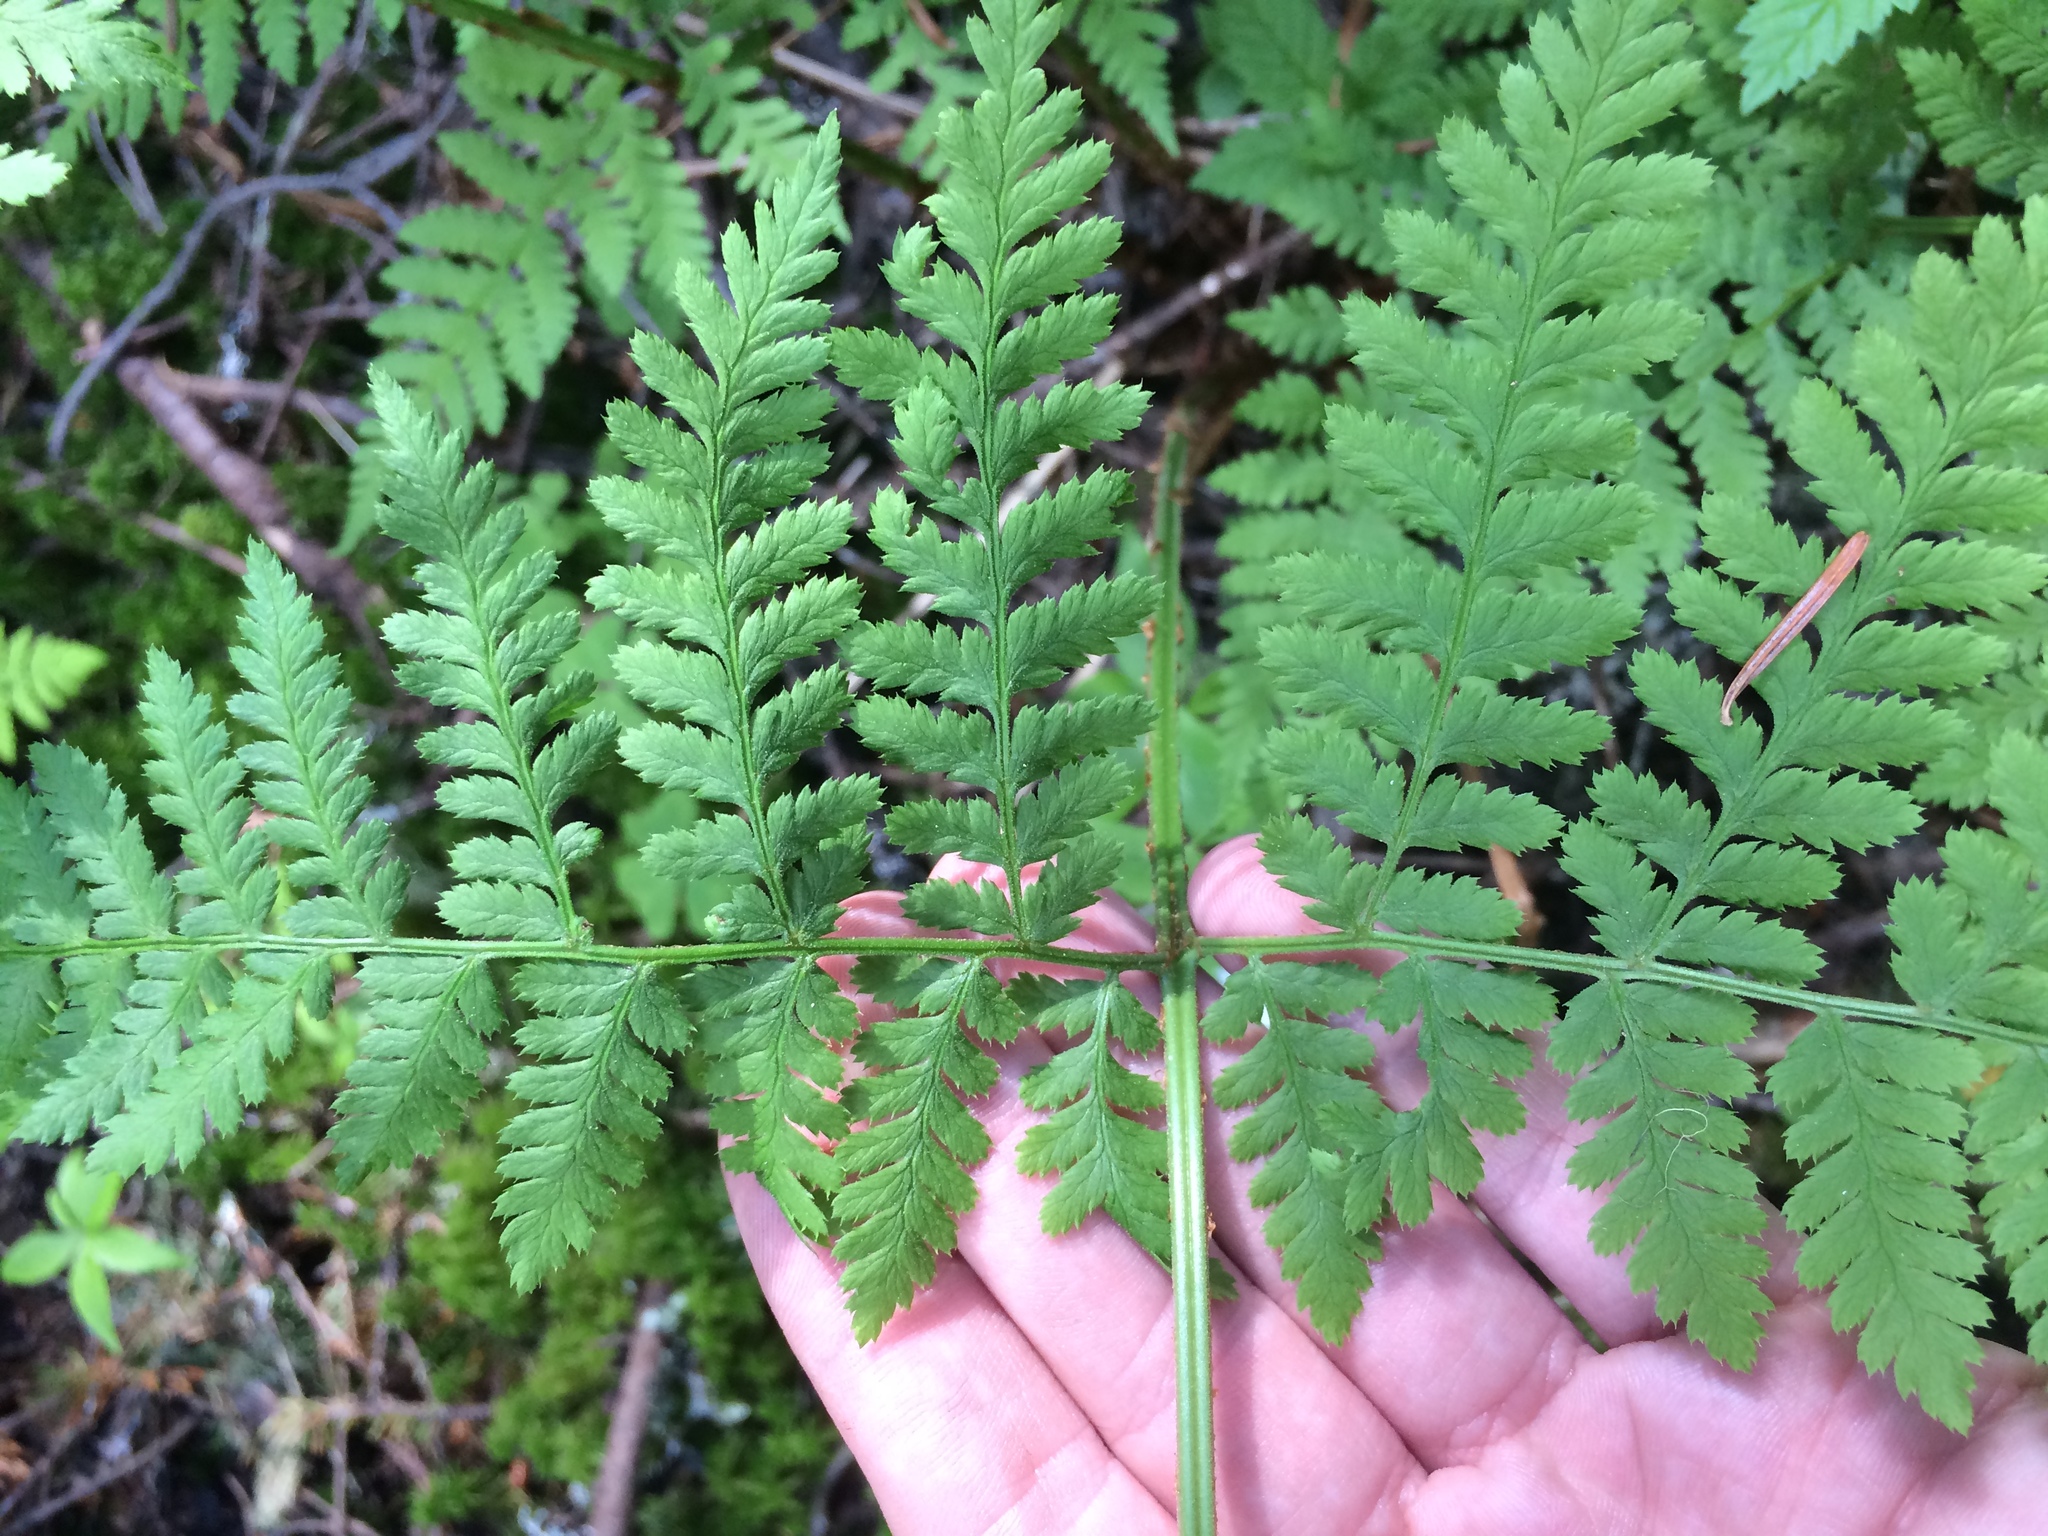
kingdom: Plantae
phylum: Tracheophyta
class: Polypodiopsida
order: Polypodiales
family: Dryopteridaceae
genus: Dryopteris
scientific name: Dryopteris campyloptera
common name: Mountain wood fern
